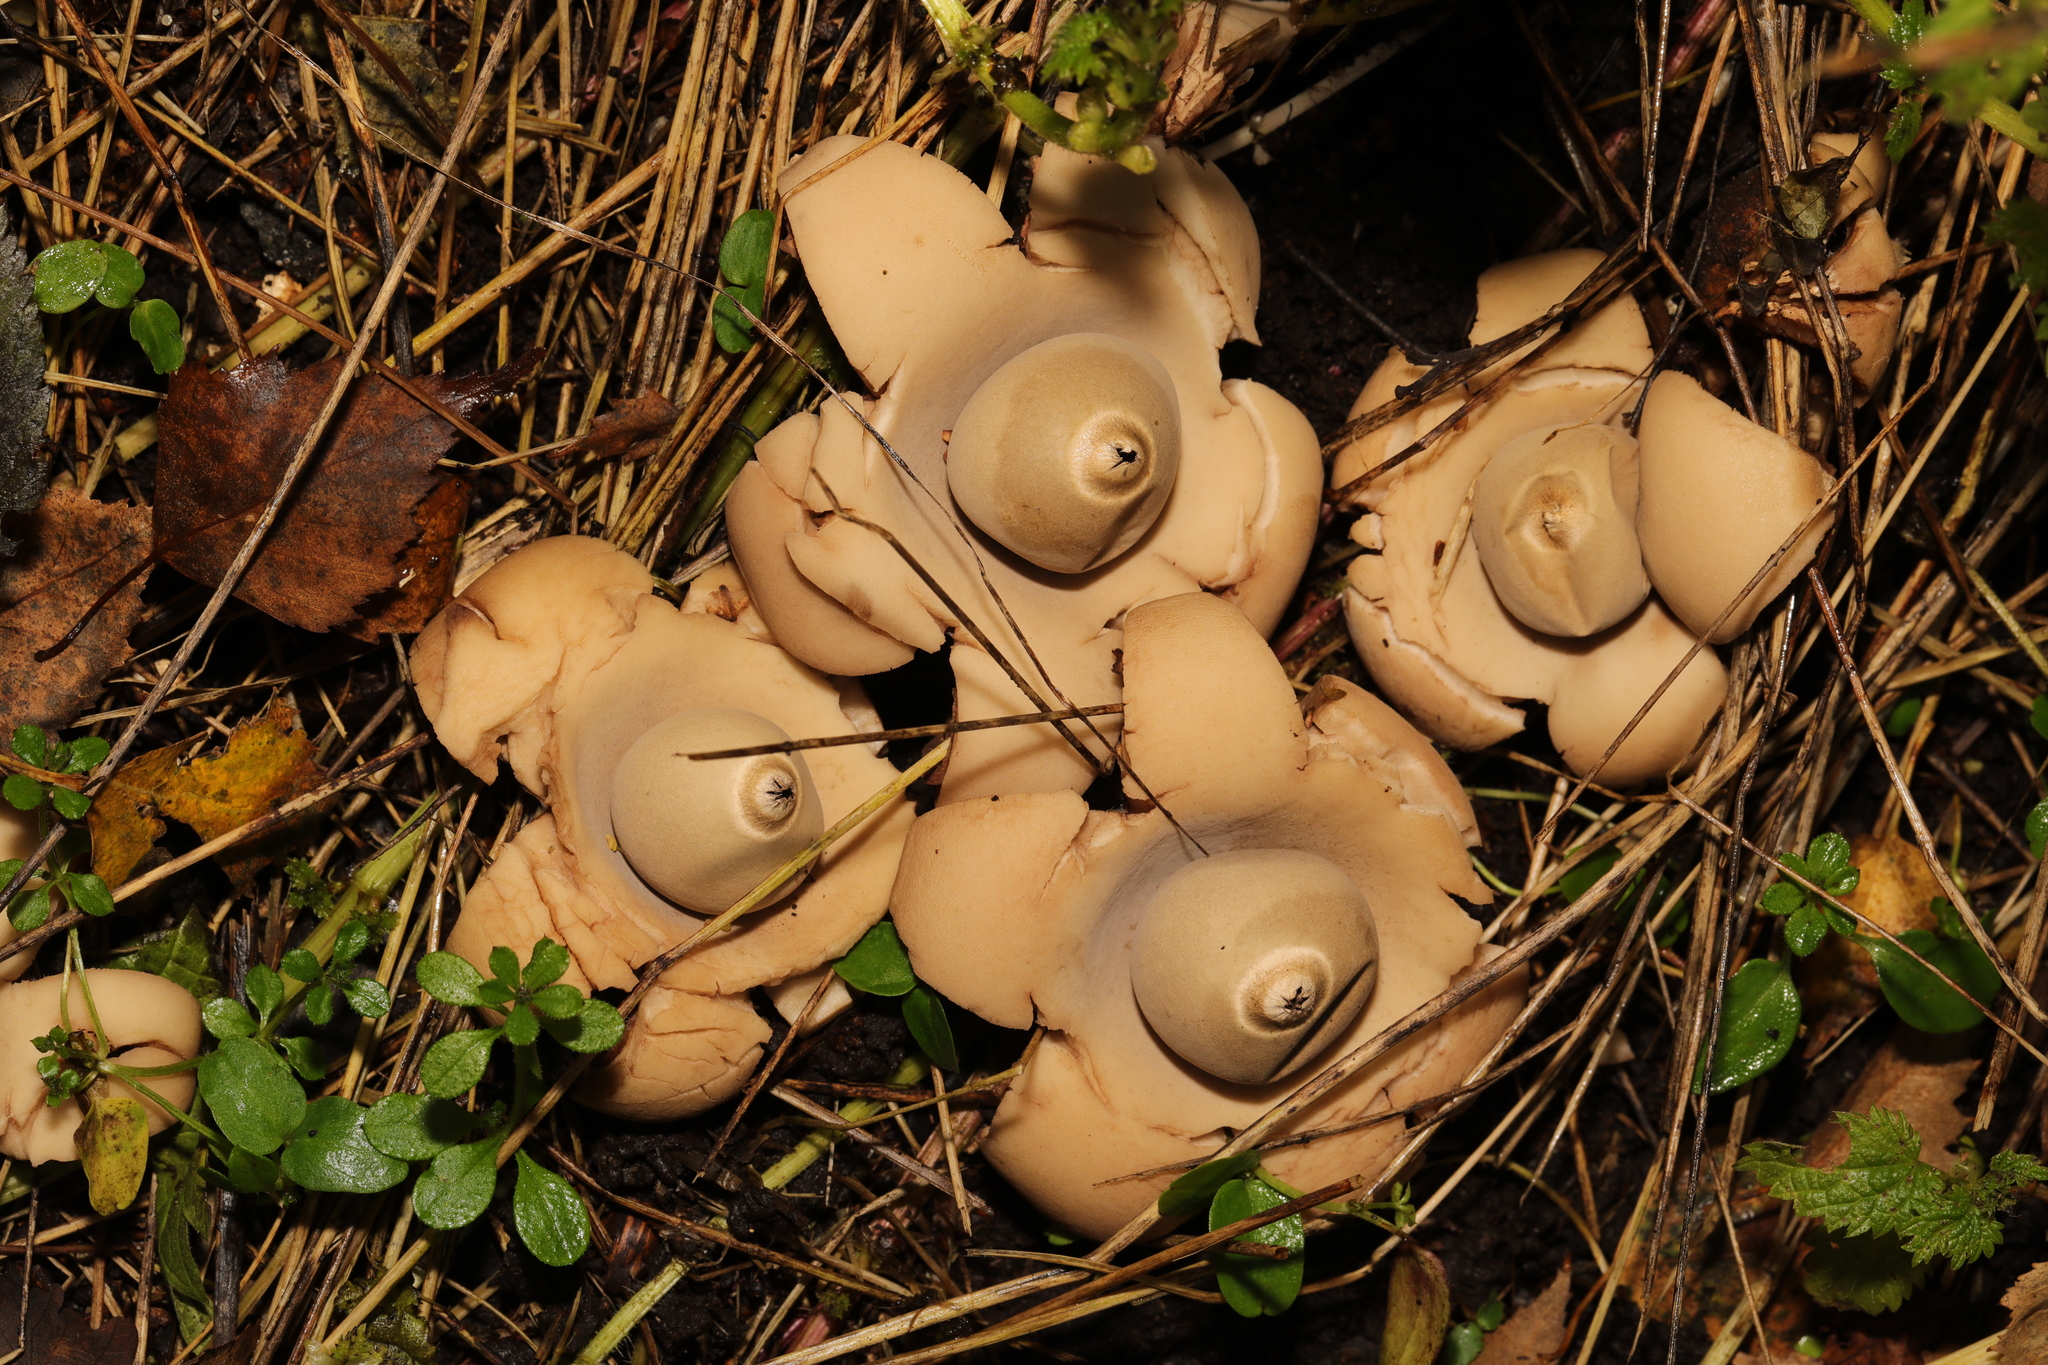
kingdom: Fungi
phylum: Basidiomycota
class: Agaricomycetes
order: Geastrales
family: Geastraceae
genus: Geastrum
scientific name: Geastrum triplex
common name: Collared earthstar
